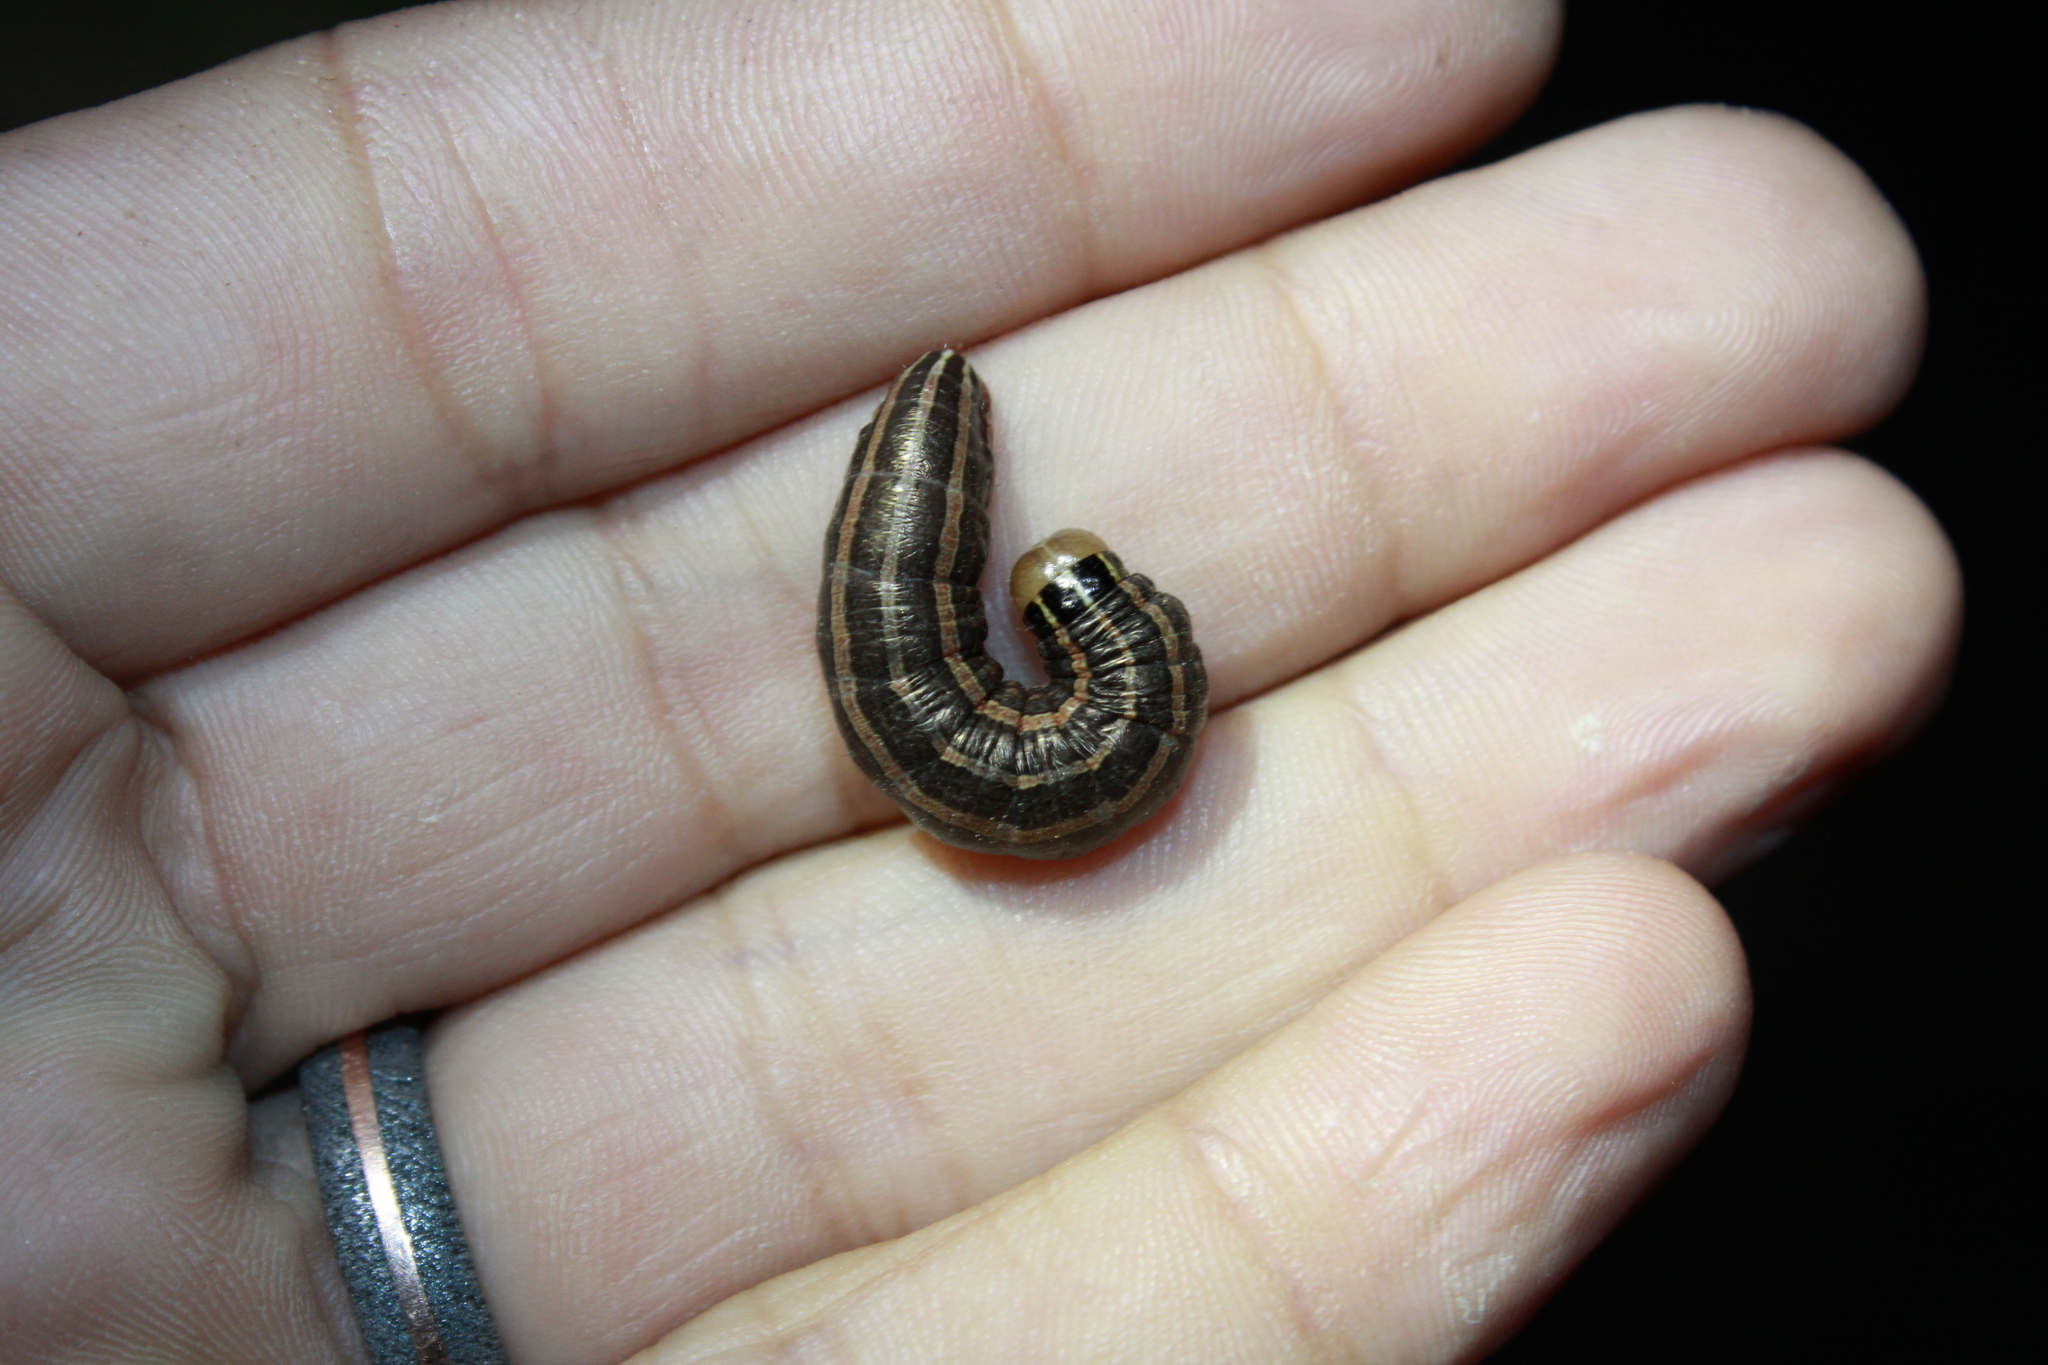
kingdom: Animalia
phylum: Arthropoda
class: Insecta
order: Lepidoptera
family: Noctuidae
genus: Nephelodes
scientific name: Nephelodes minians
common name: Bronzed cutworm
